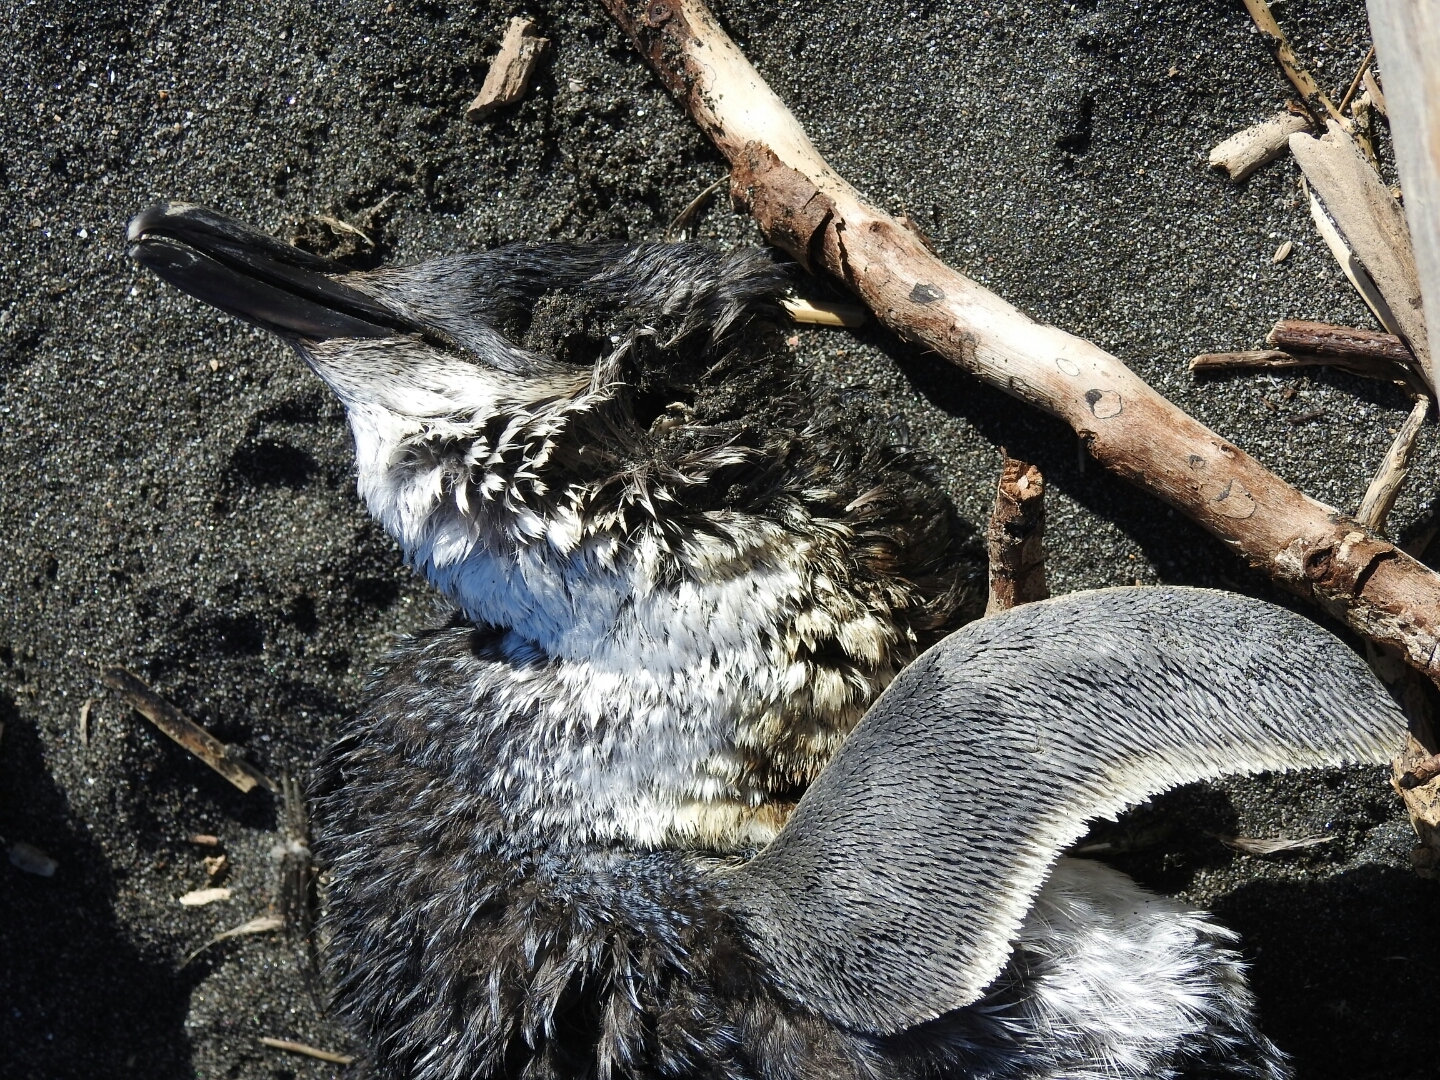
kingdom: Animalia
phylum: Chordata
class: Aves
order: Sphenisciformes
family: Spheniscidae
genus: Eudyptula
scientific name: Eudyptula minor
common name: Little penguin
